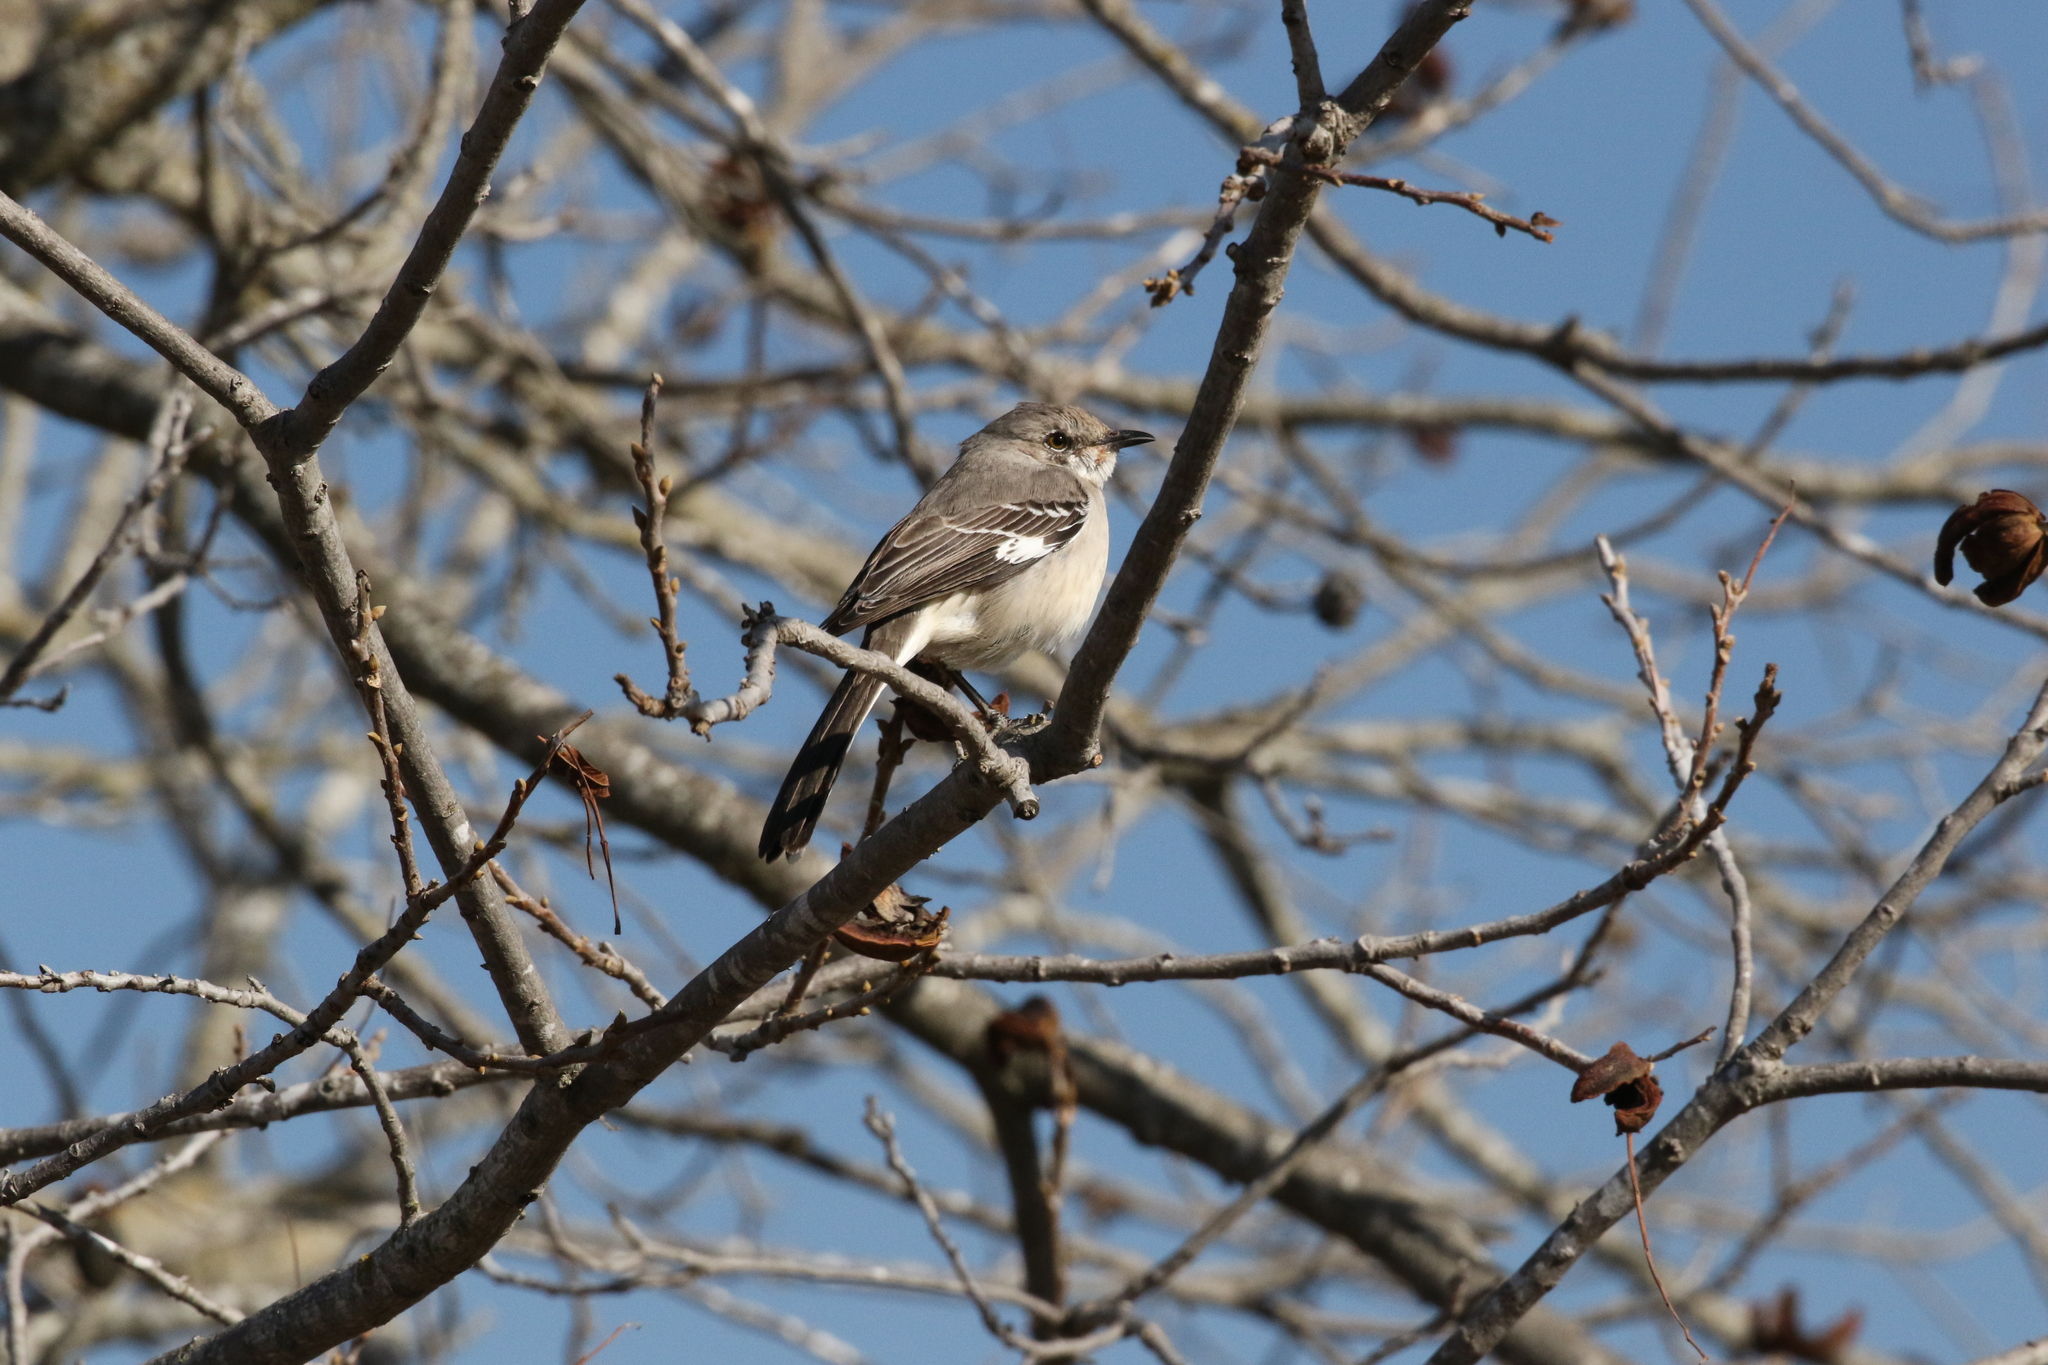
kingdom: Animalia
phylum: Chordata
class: Aves
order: Passeriformes
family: Mimidae
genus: Mimus
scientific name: Mimus polyglottos
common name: Northern mockingbird
